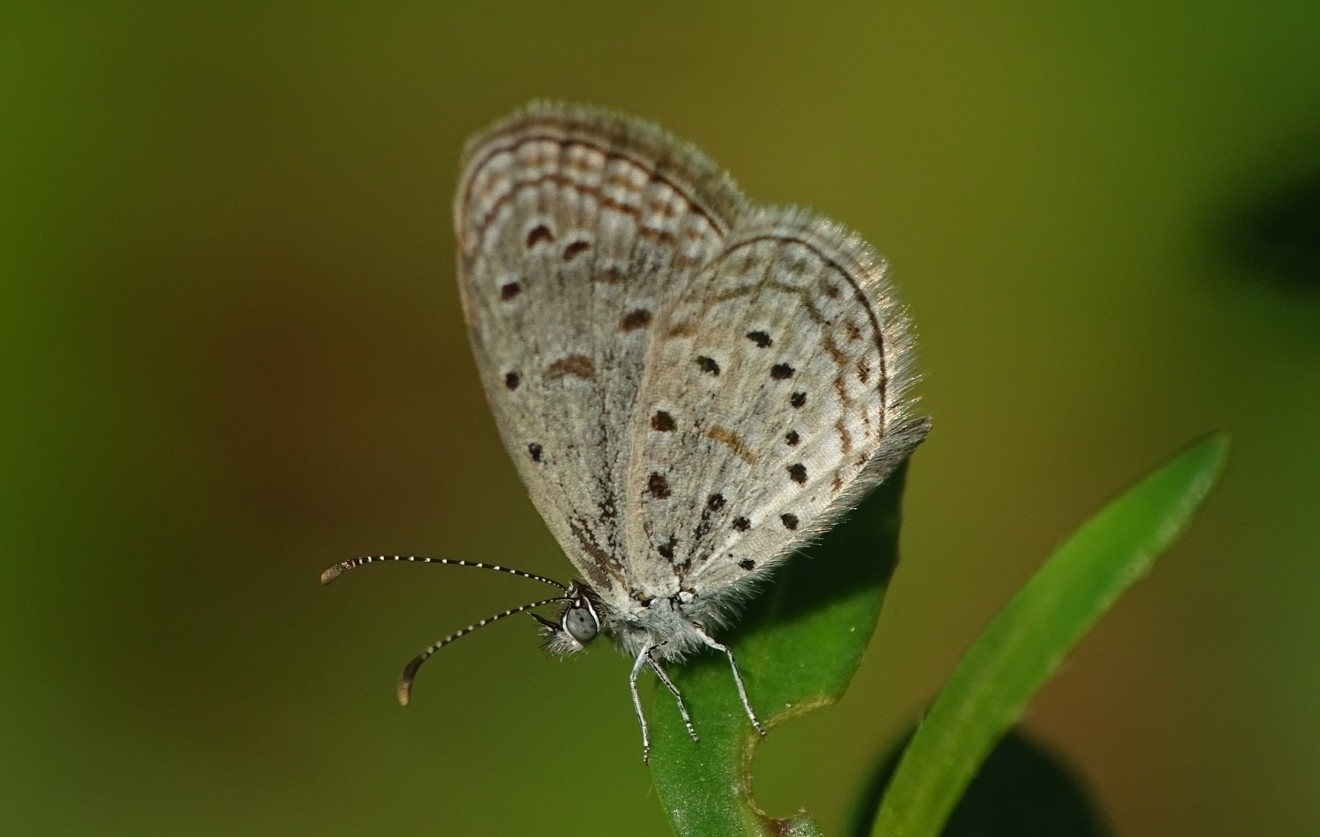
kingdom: Animalia
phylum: Arthropoda
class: Insecta
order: Lepidoptera
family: Lycaenidae
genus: Zizula
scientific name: Zizula hylax
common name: Gaika blue
